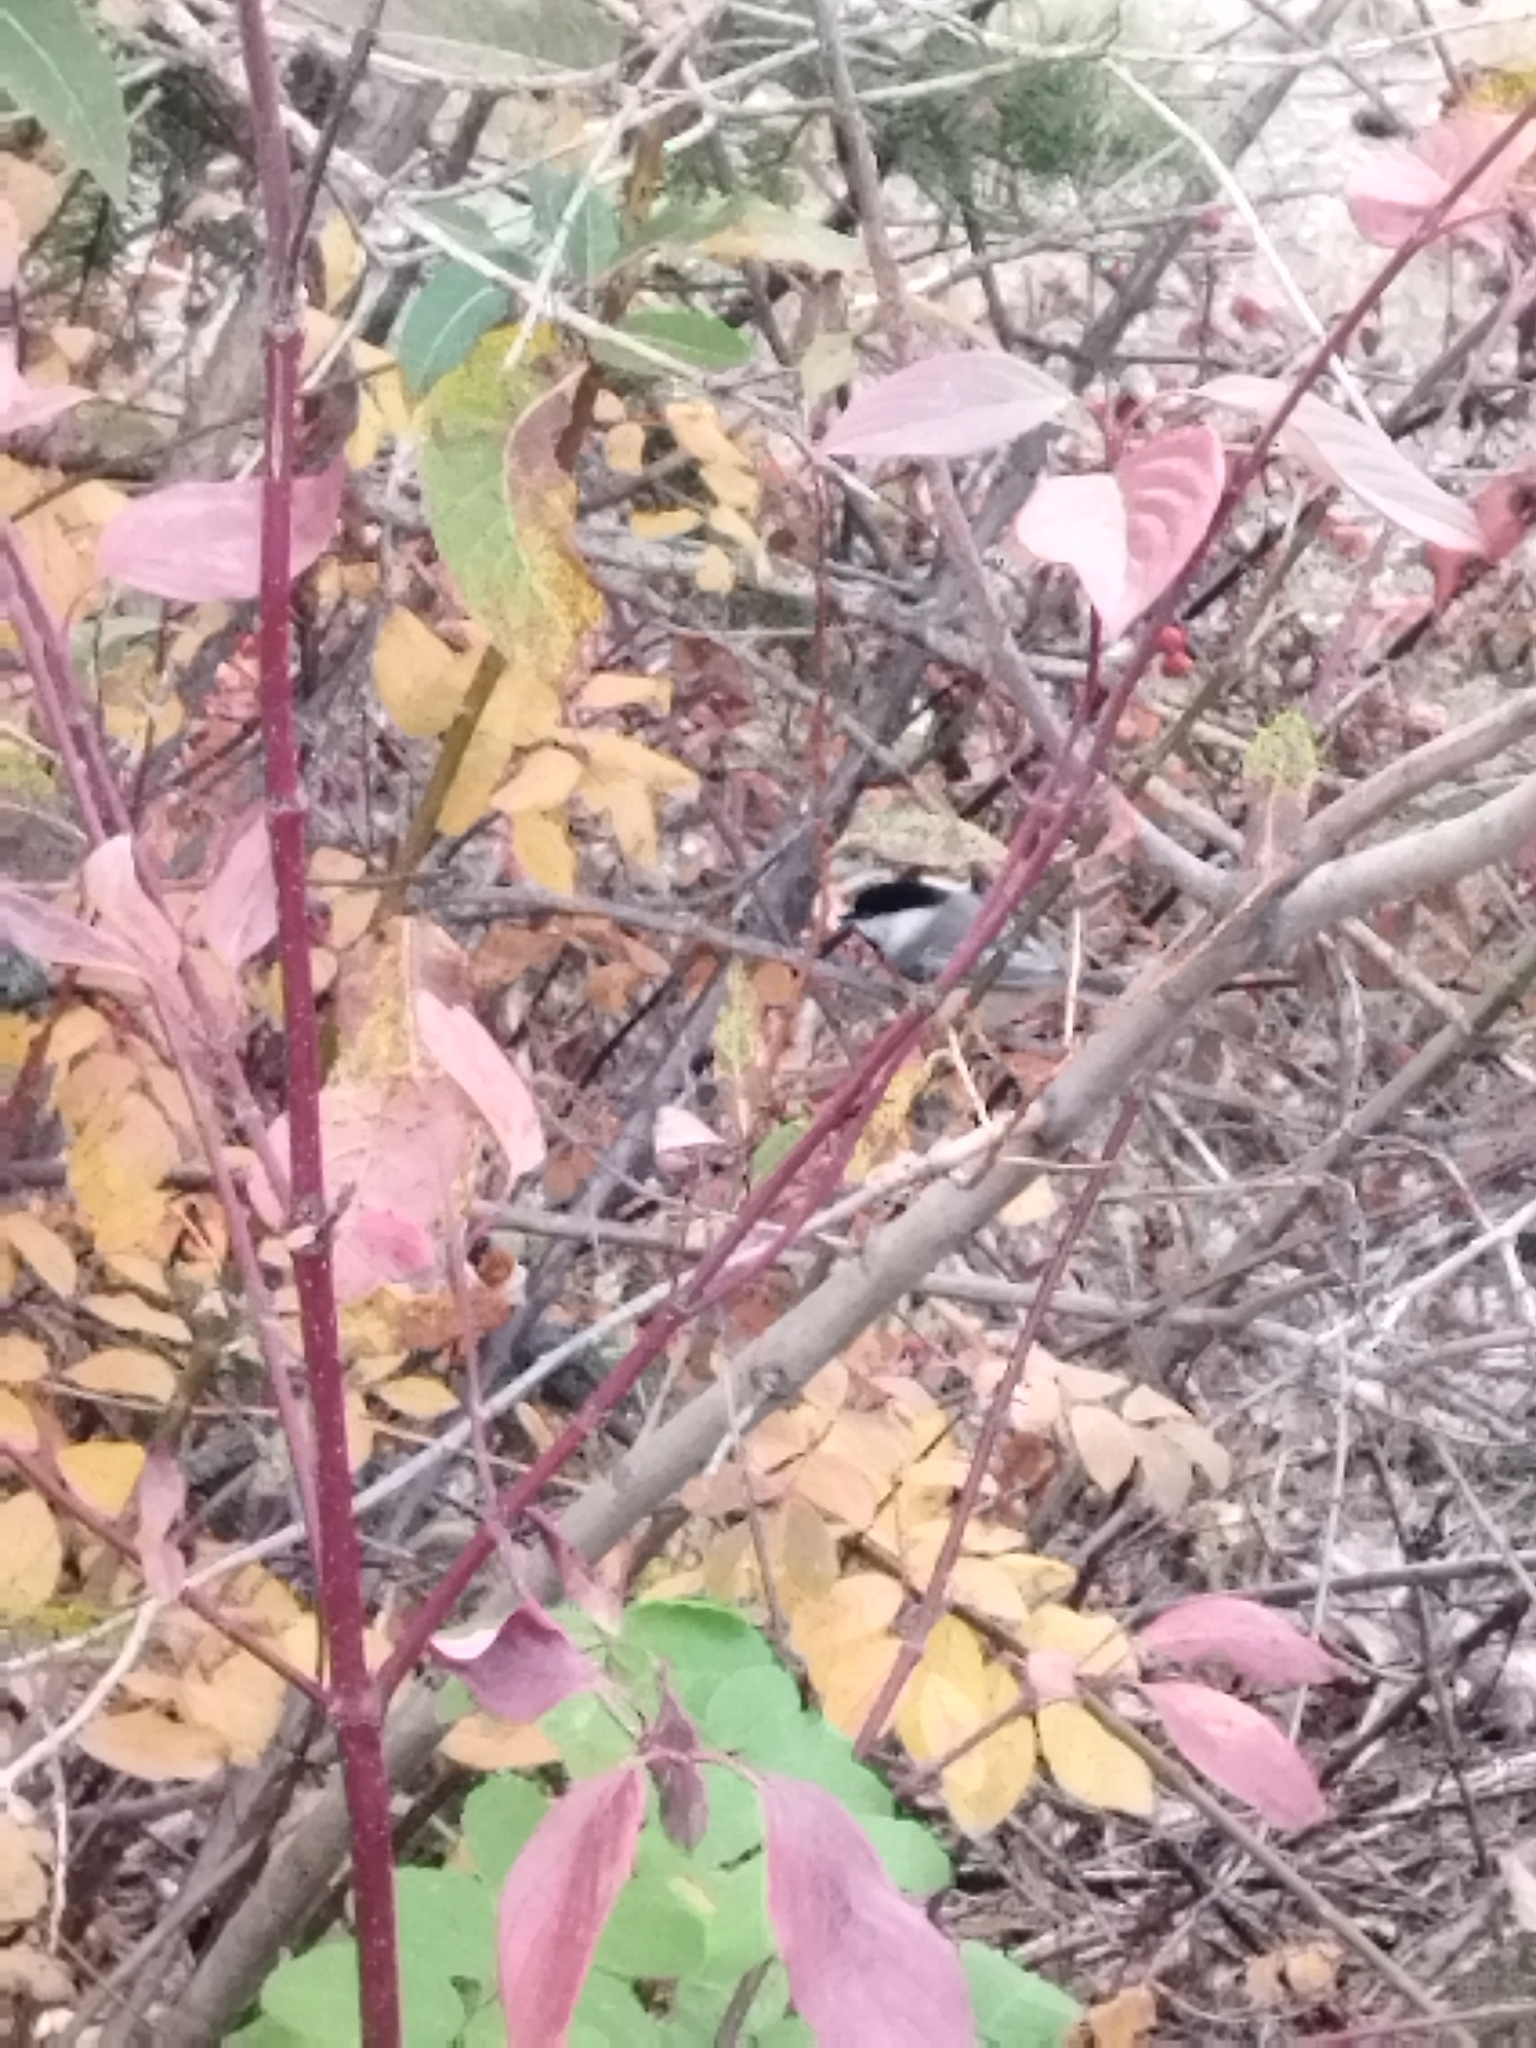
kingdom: Animalia
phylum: Chordata
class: Aves
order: Passeriformes
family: Paridae
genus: Poecile
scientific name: Poecile atricapillus
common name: Black-capped chickadee
